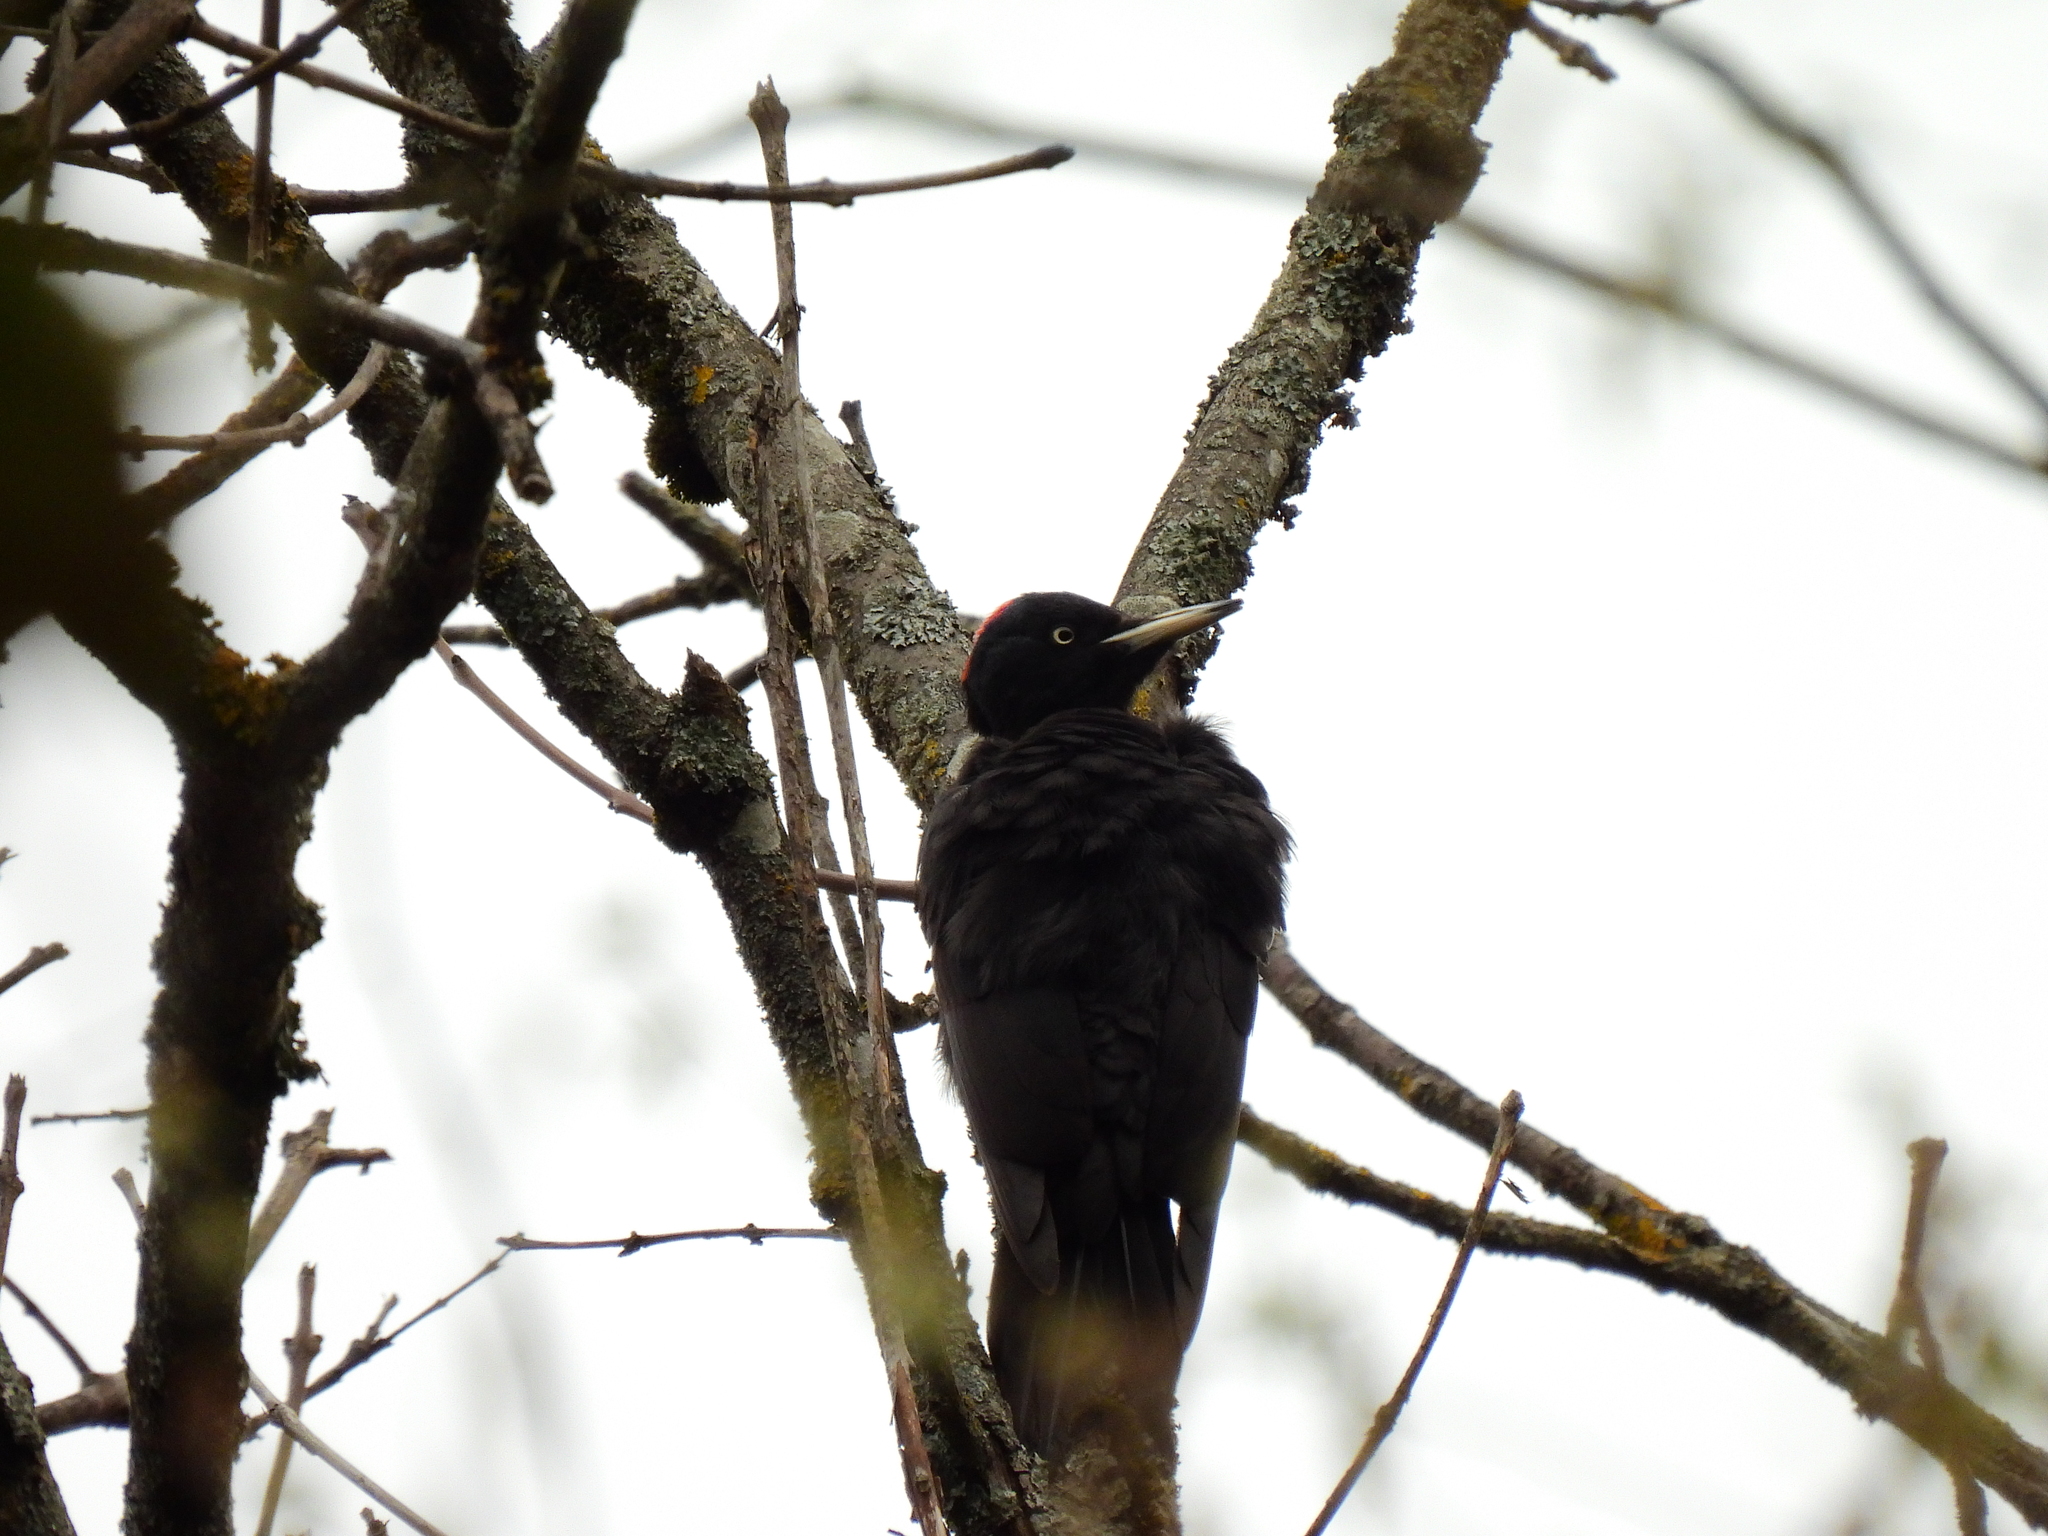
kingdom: Animalia
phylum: Chordata
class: Aves
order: Piciformes
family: Picidae
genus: Dryocopus
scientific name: Dryocopus martius
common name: Black woodpecker
